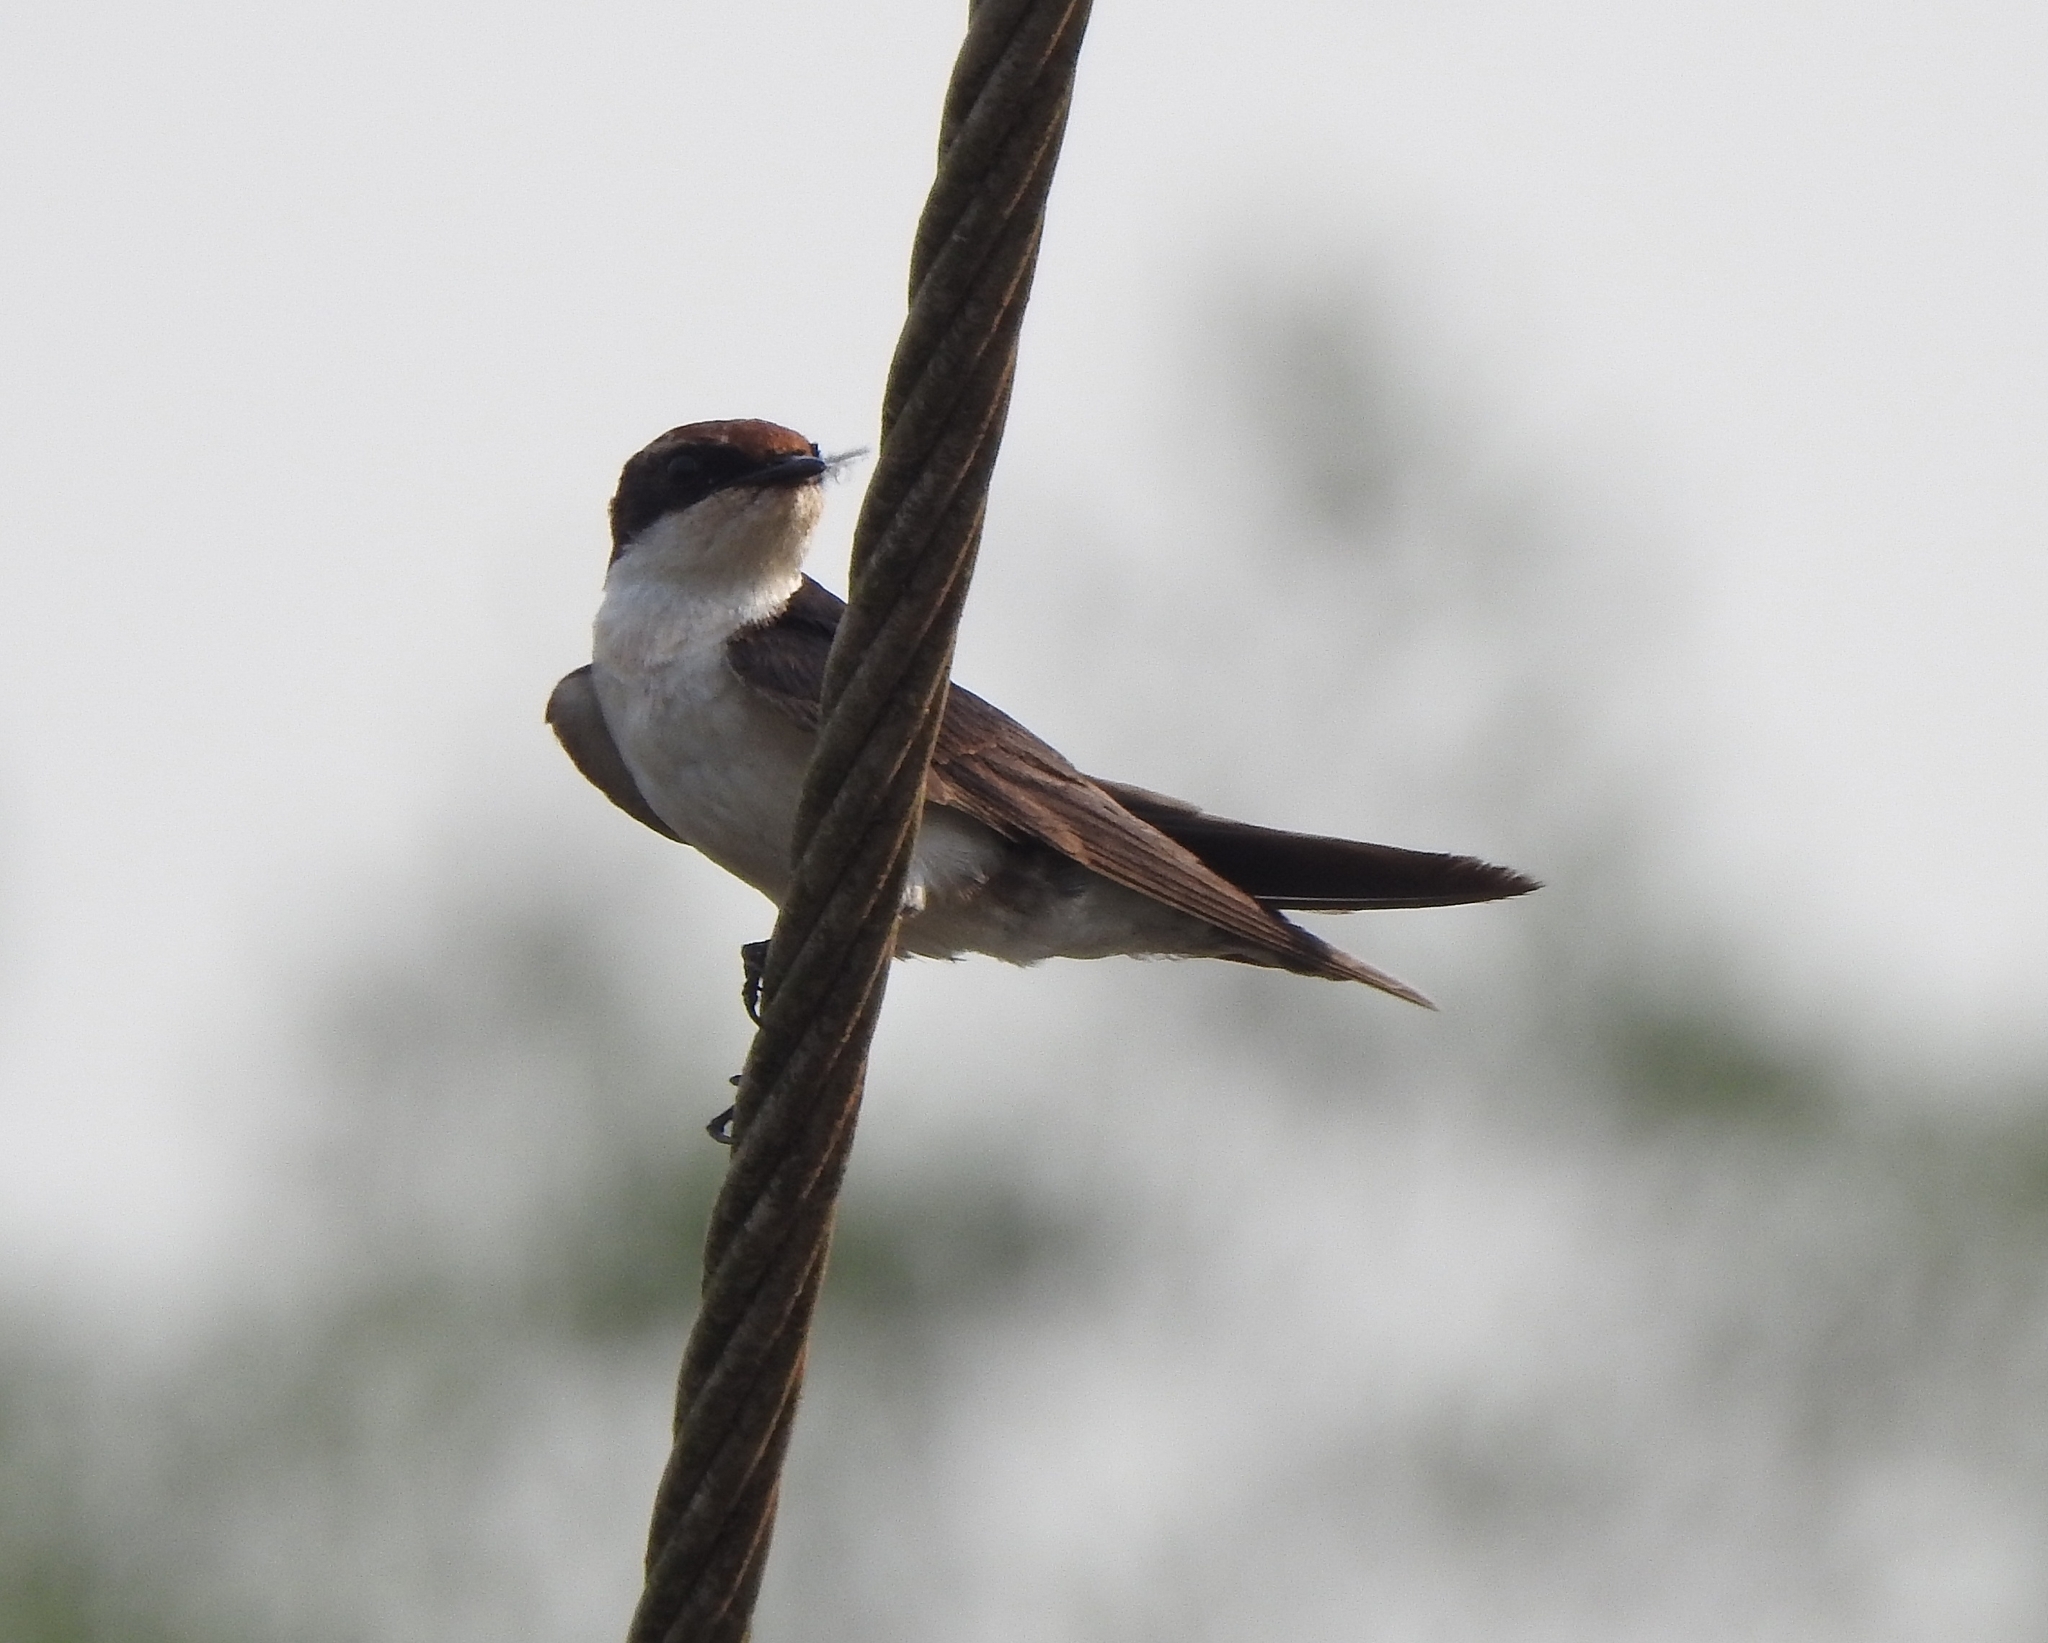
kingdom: Animalia
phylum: Chordata
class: Aves
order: Passeriformes
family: Hirundinidae
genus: Hirundo
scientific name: Hirundo smithii
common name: Wire-tailed swallow
